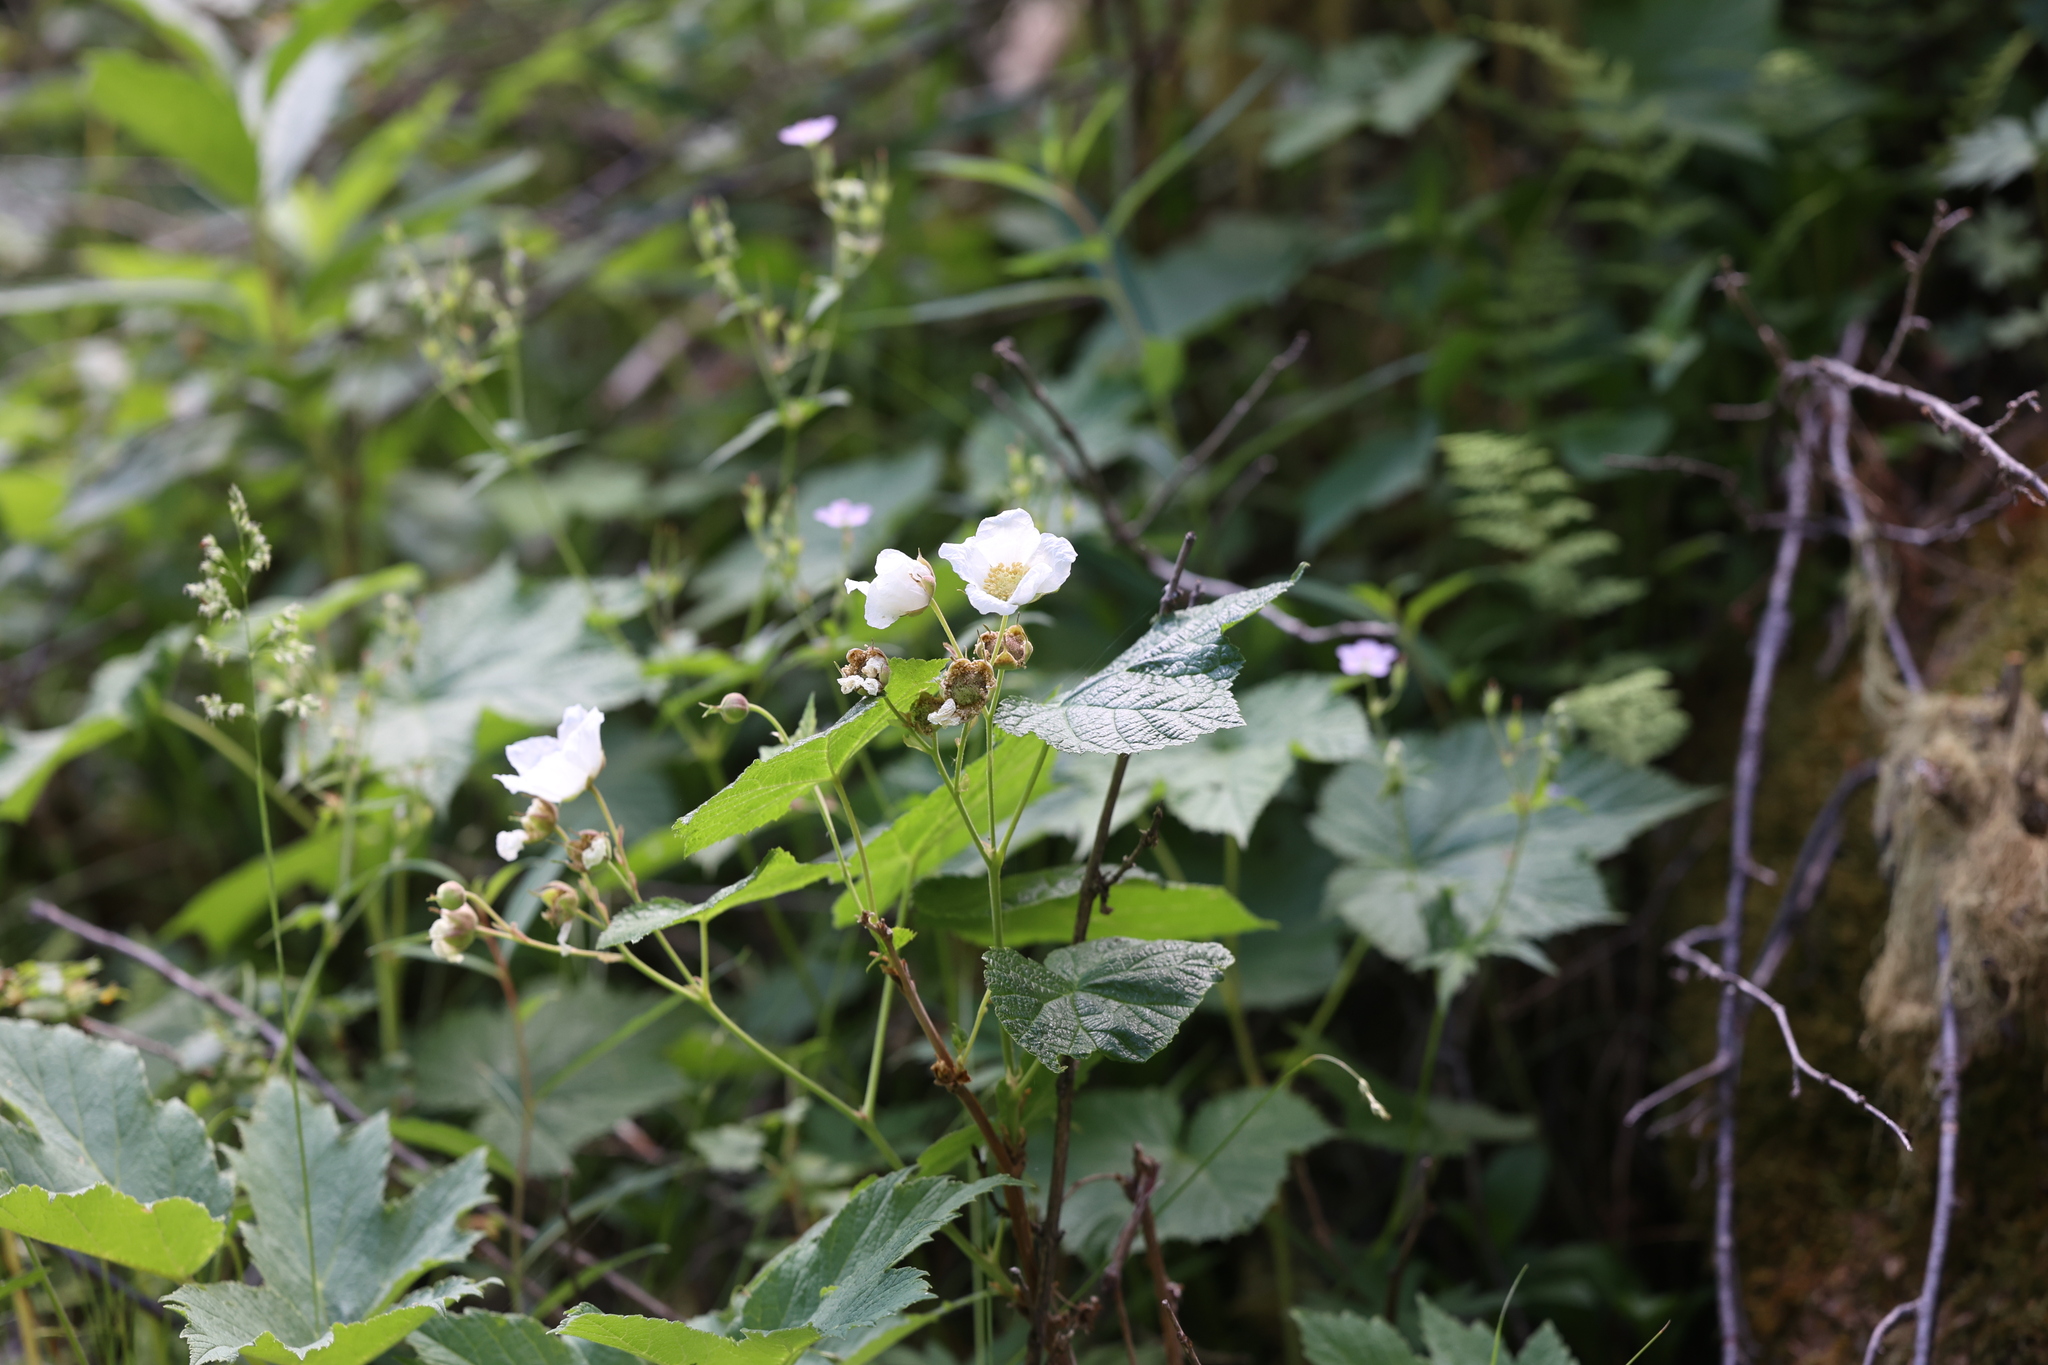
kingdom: Plantae
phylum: Tracheophyta
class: Magnoliopsida
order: Rosales
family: Rosaceae
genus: Rubus
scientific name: Rubus parviflorus
